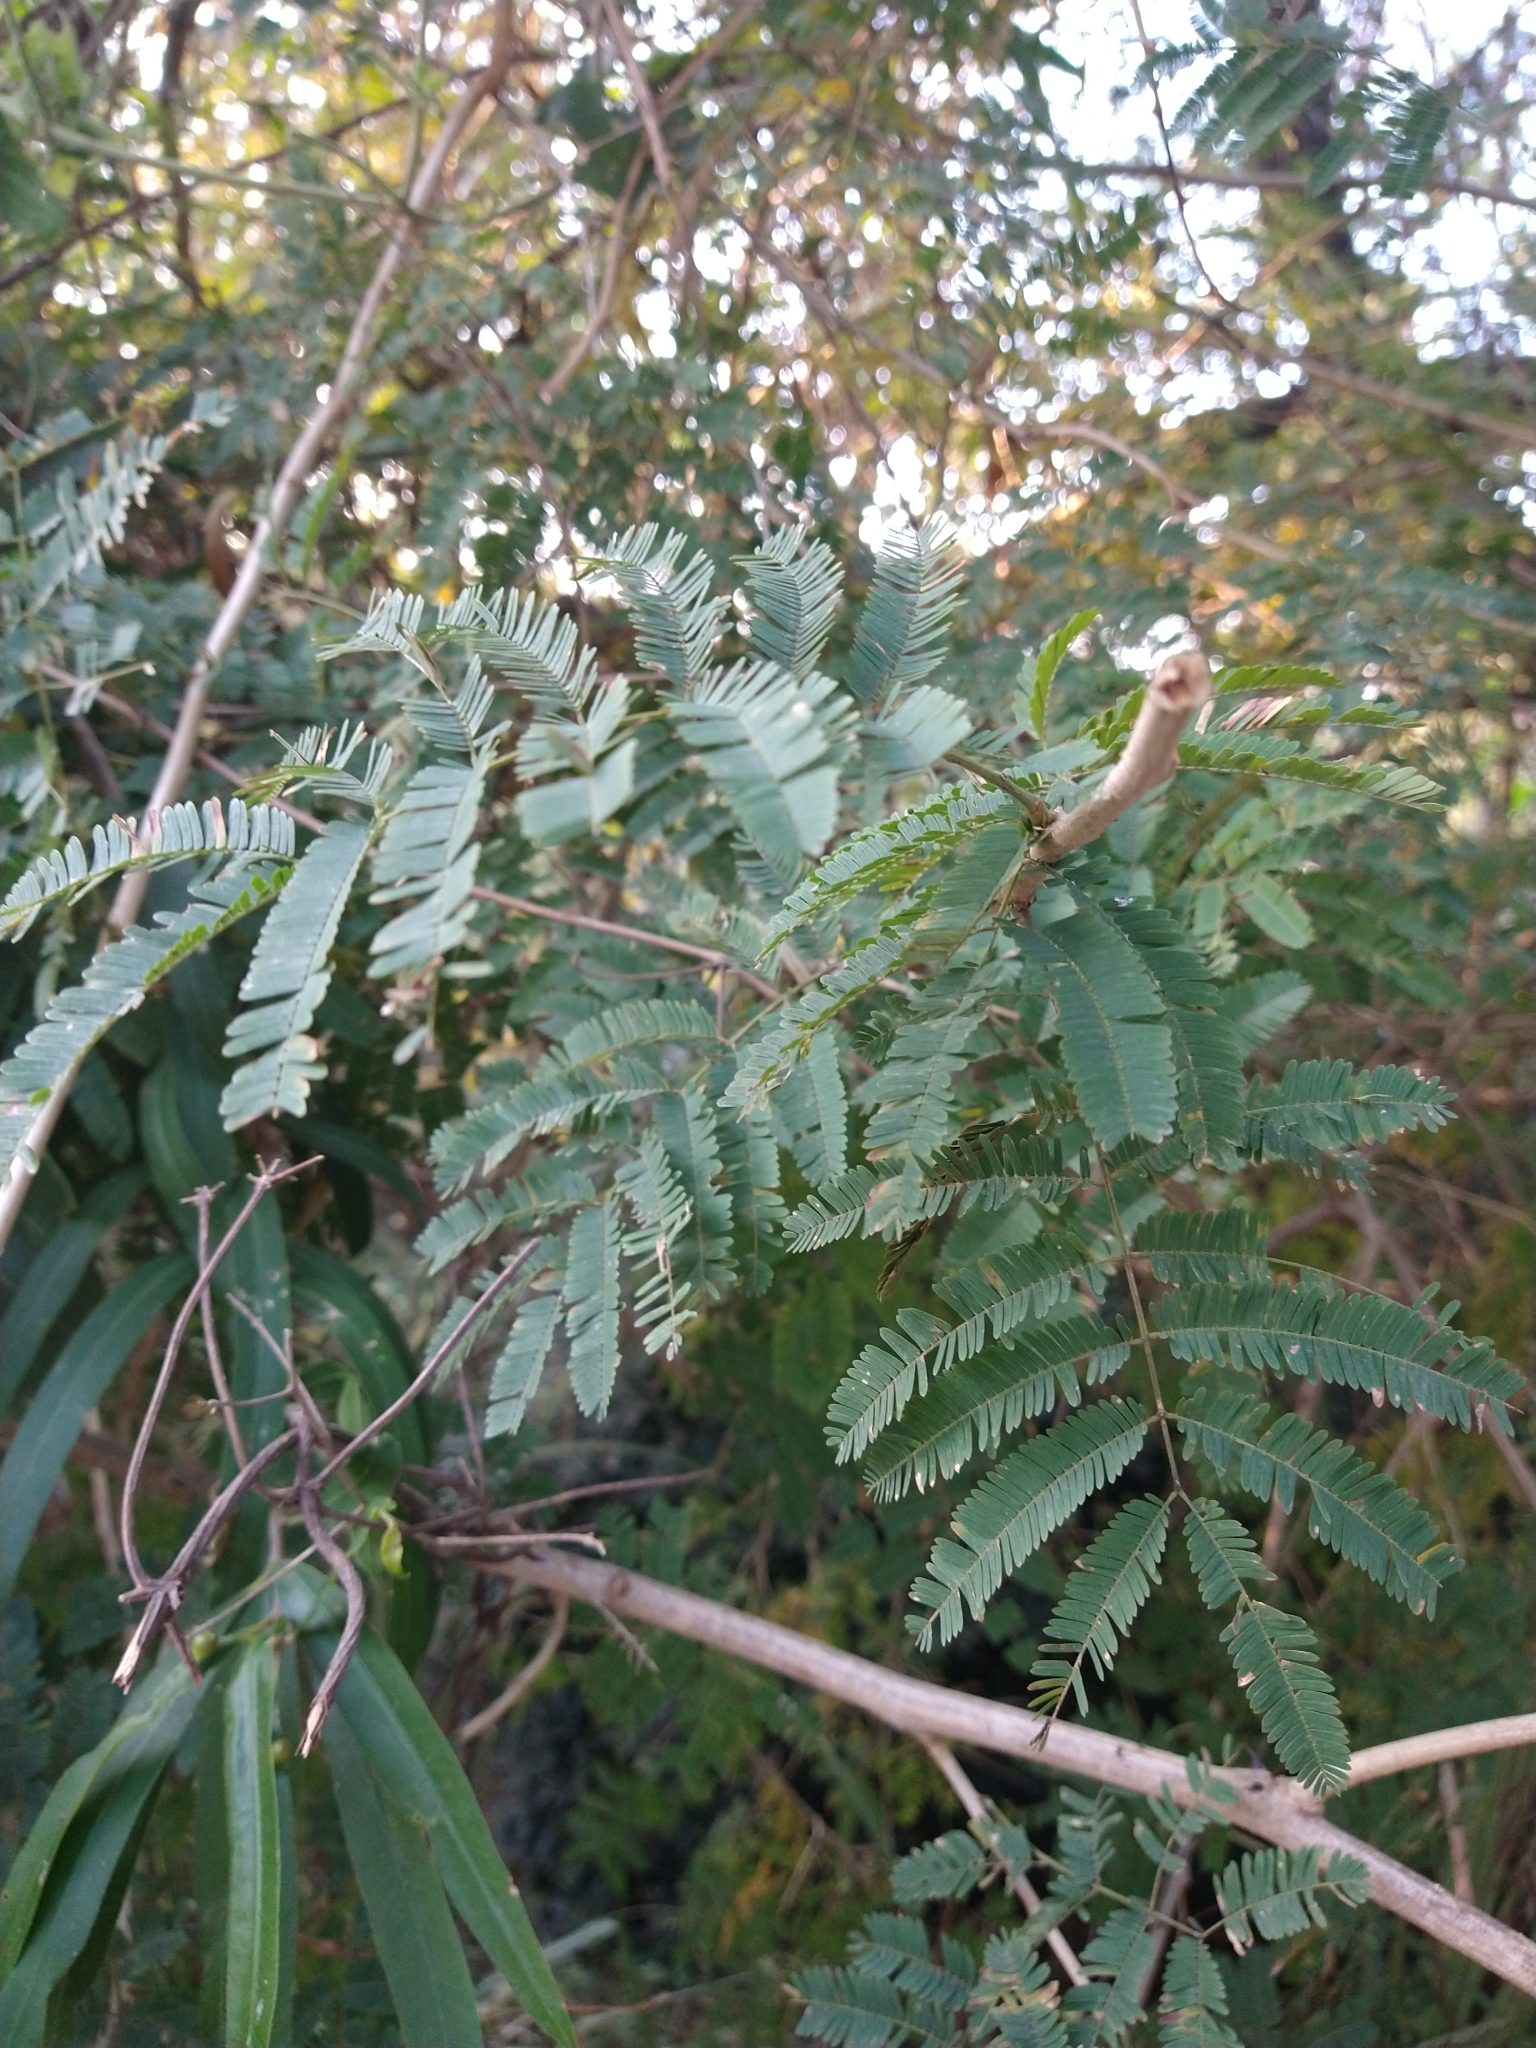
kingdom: Plantae
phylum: Tracheophyta
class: Magnoliopsida
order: Fabales
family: Fabaceae
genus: Senegalia
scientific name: Senegalia bonariensis
